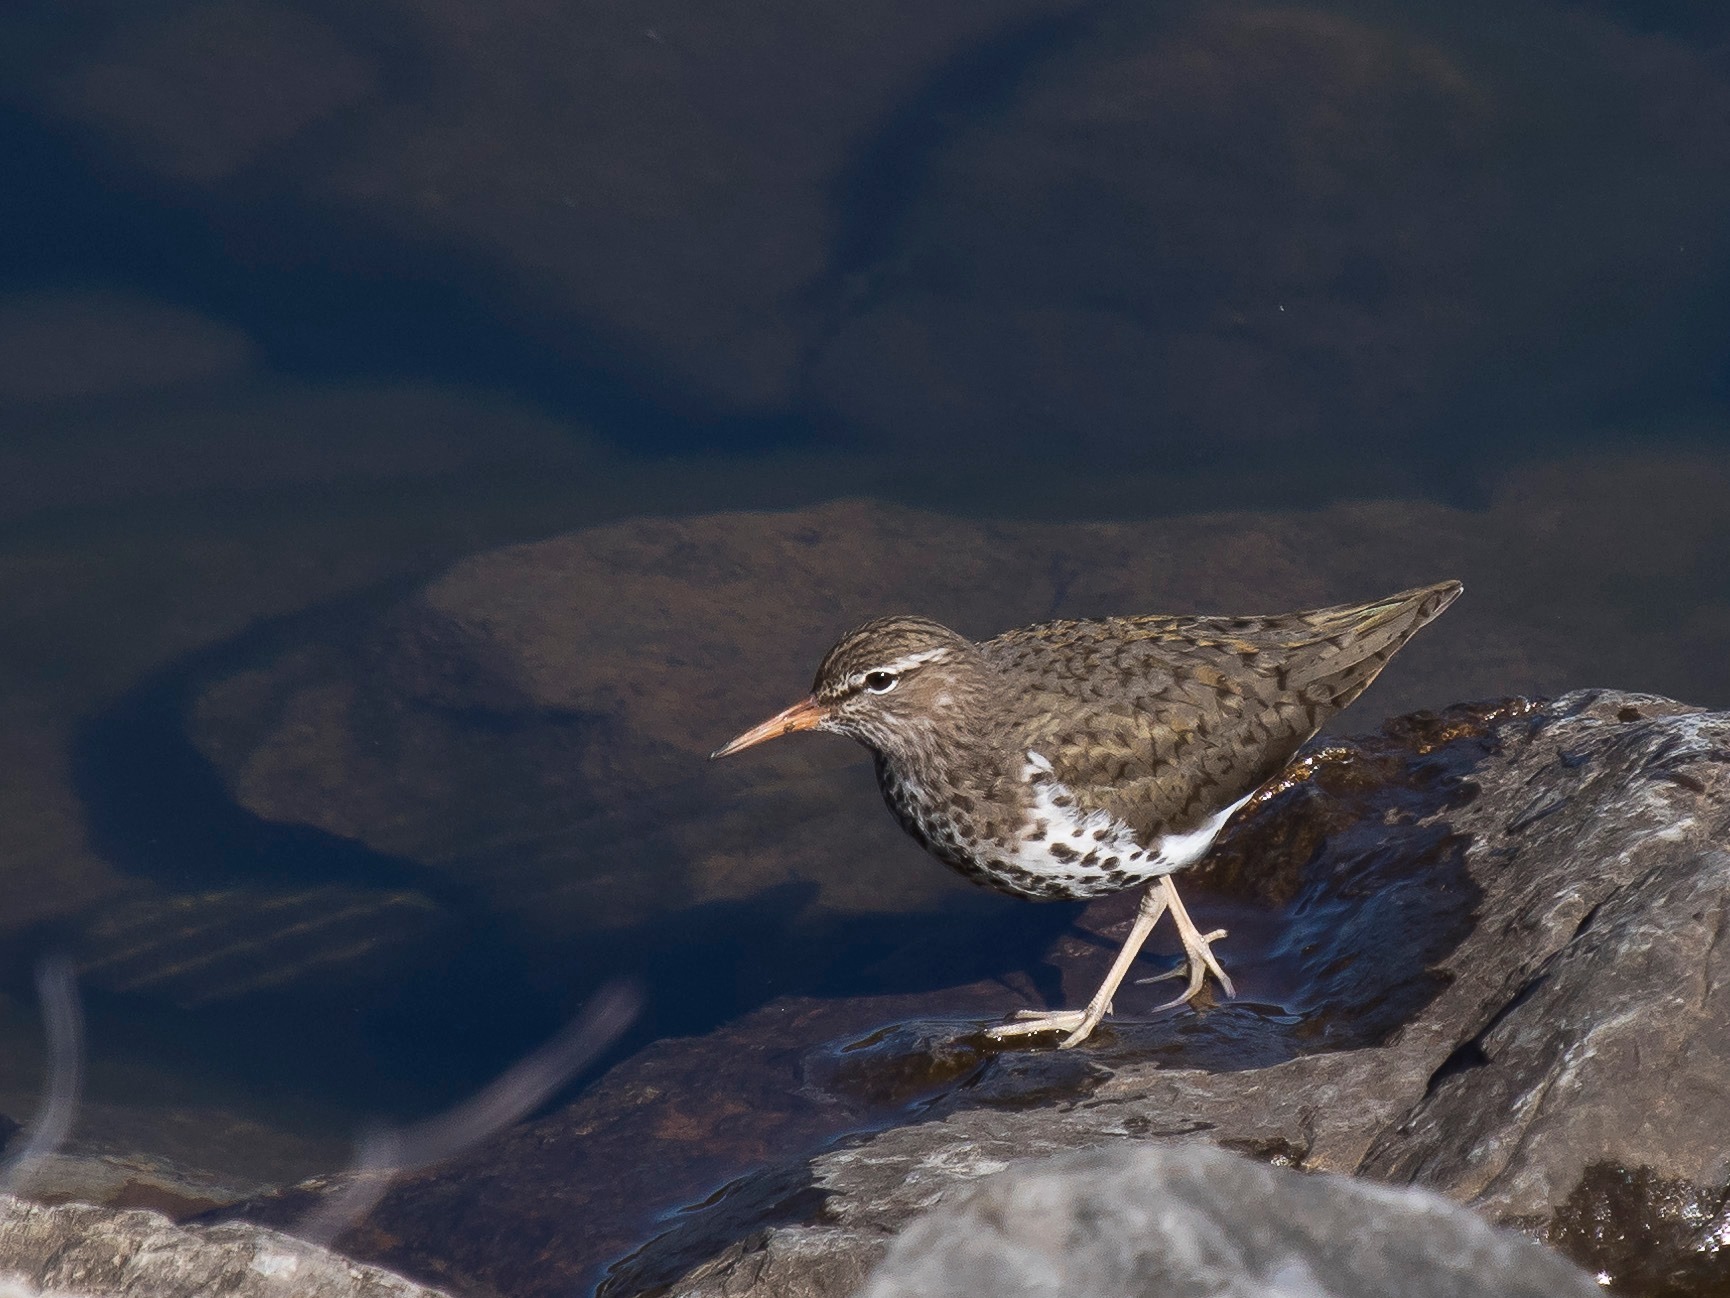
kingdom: Animalia
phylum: Chordata
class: Aves
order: Charadriiformes
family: Scolopacidae
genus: Actitis
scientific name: Actitis macularius
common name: Spotted sandpiper
